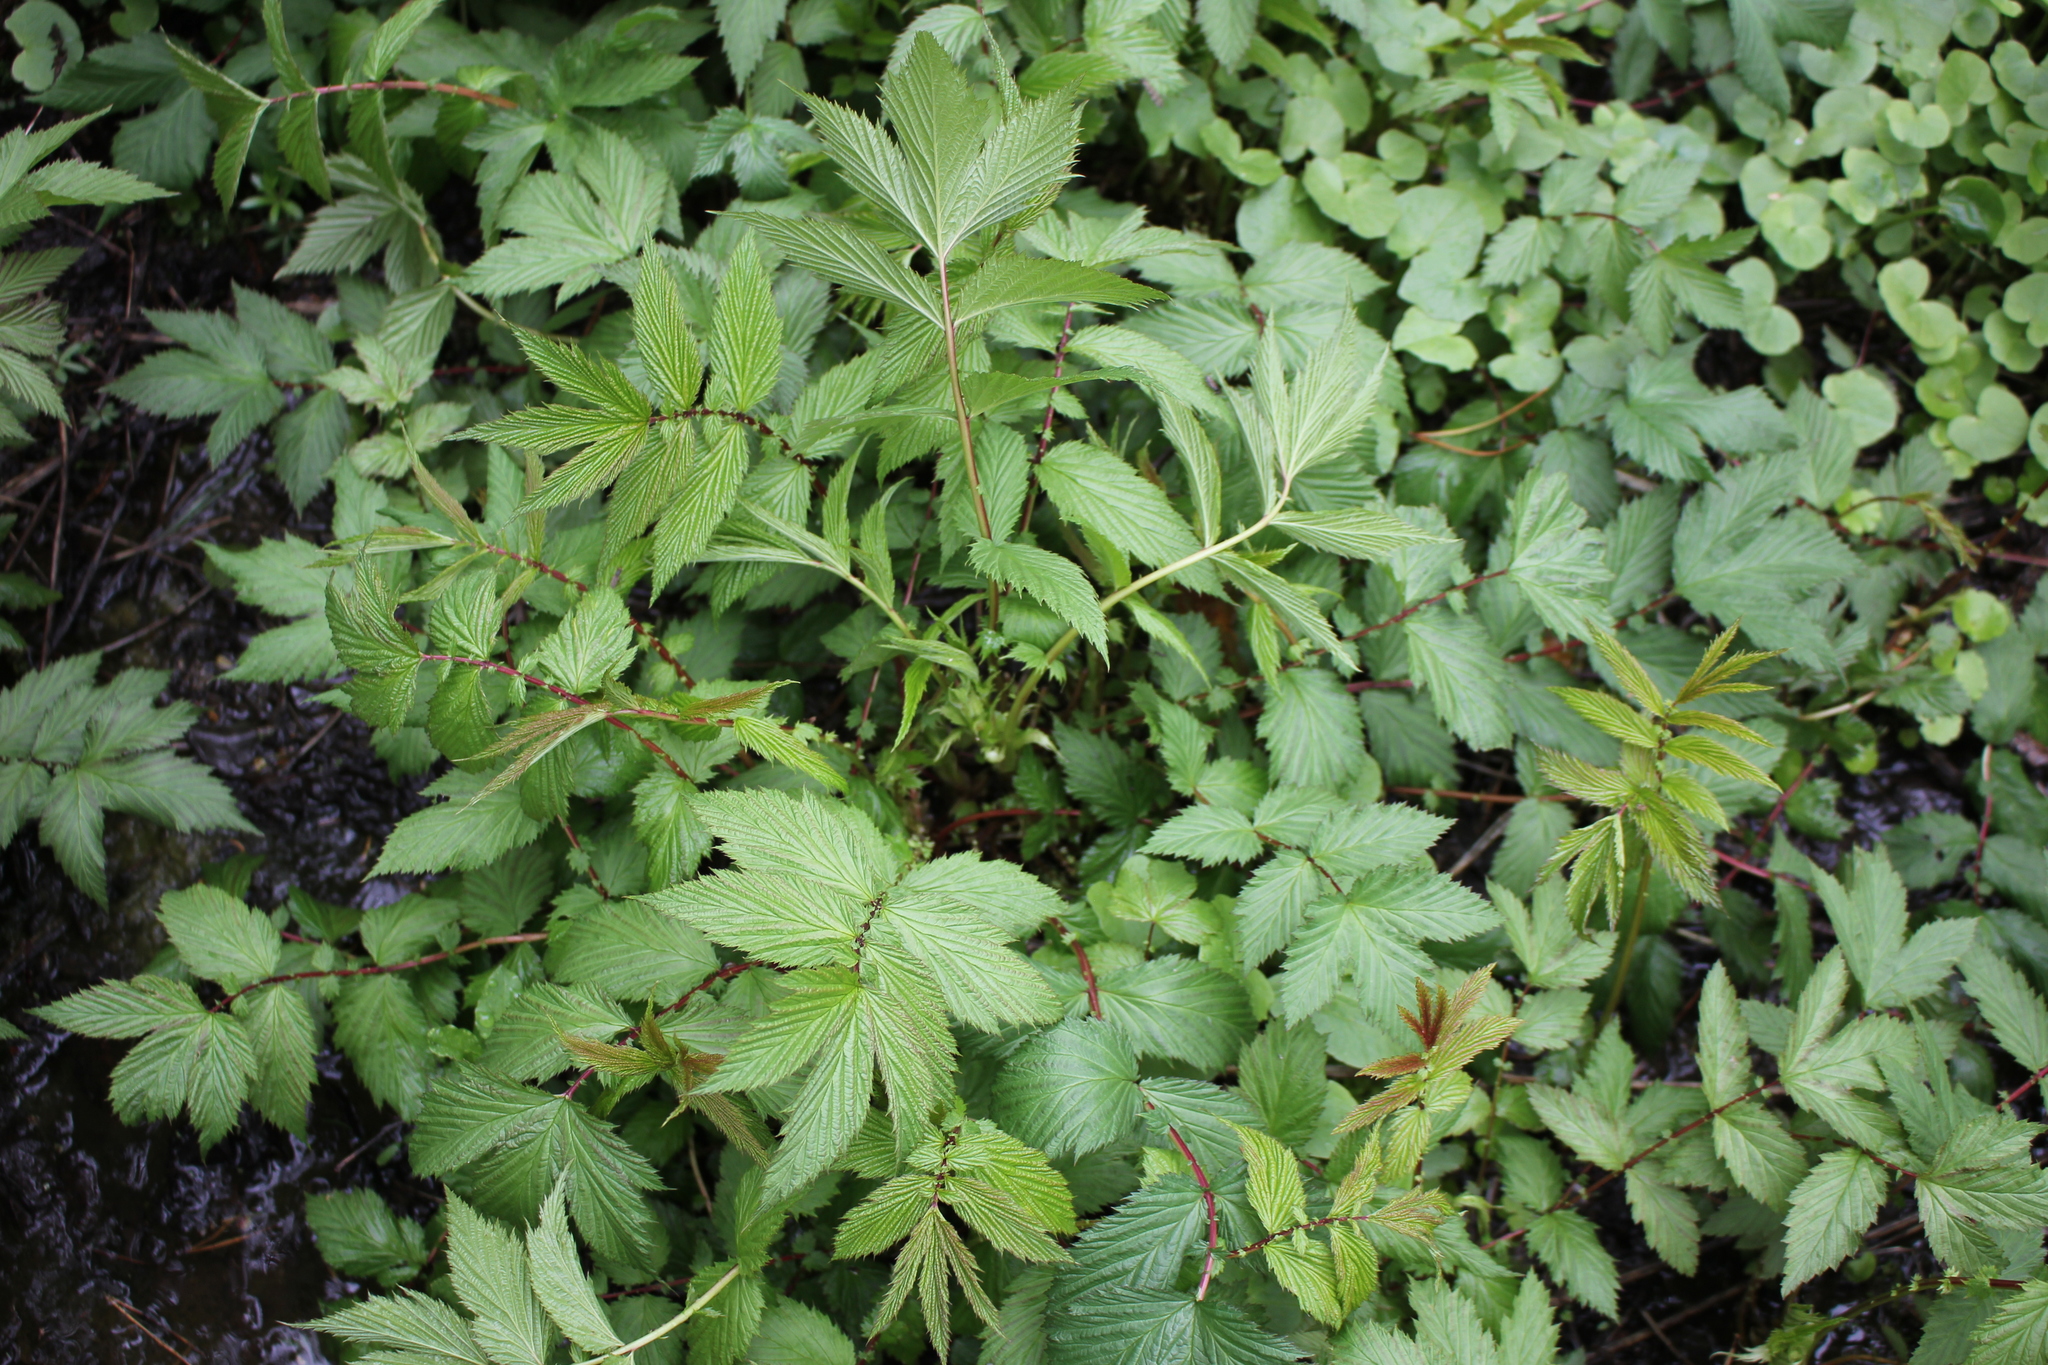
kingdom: Plantae
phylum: Tracheophyta
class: Magnoliopsida
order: Rosales
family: Rosaceae
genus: Filipendula
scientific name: Filipendula ulmaria
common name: Meadowsweet
